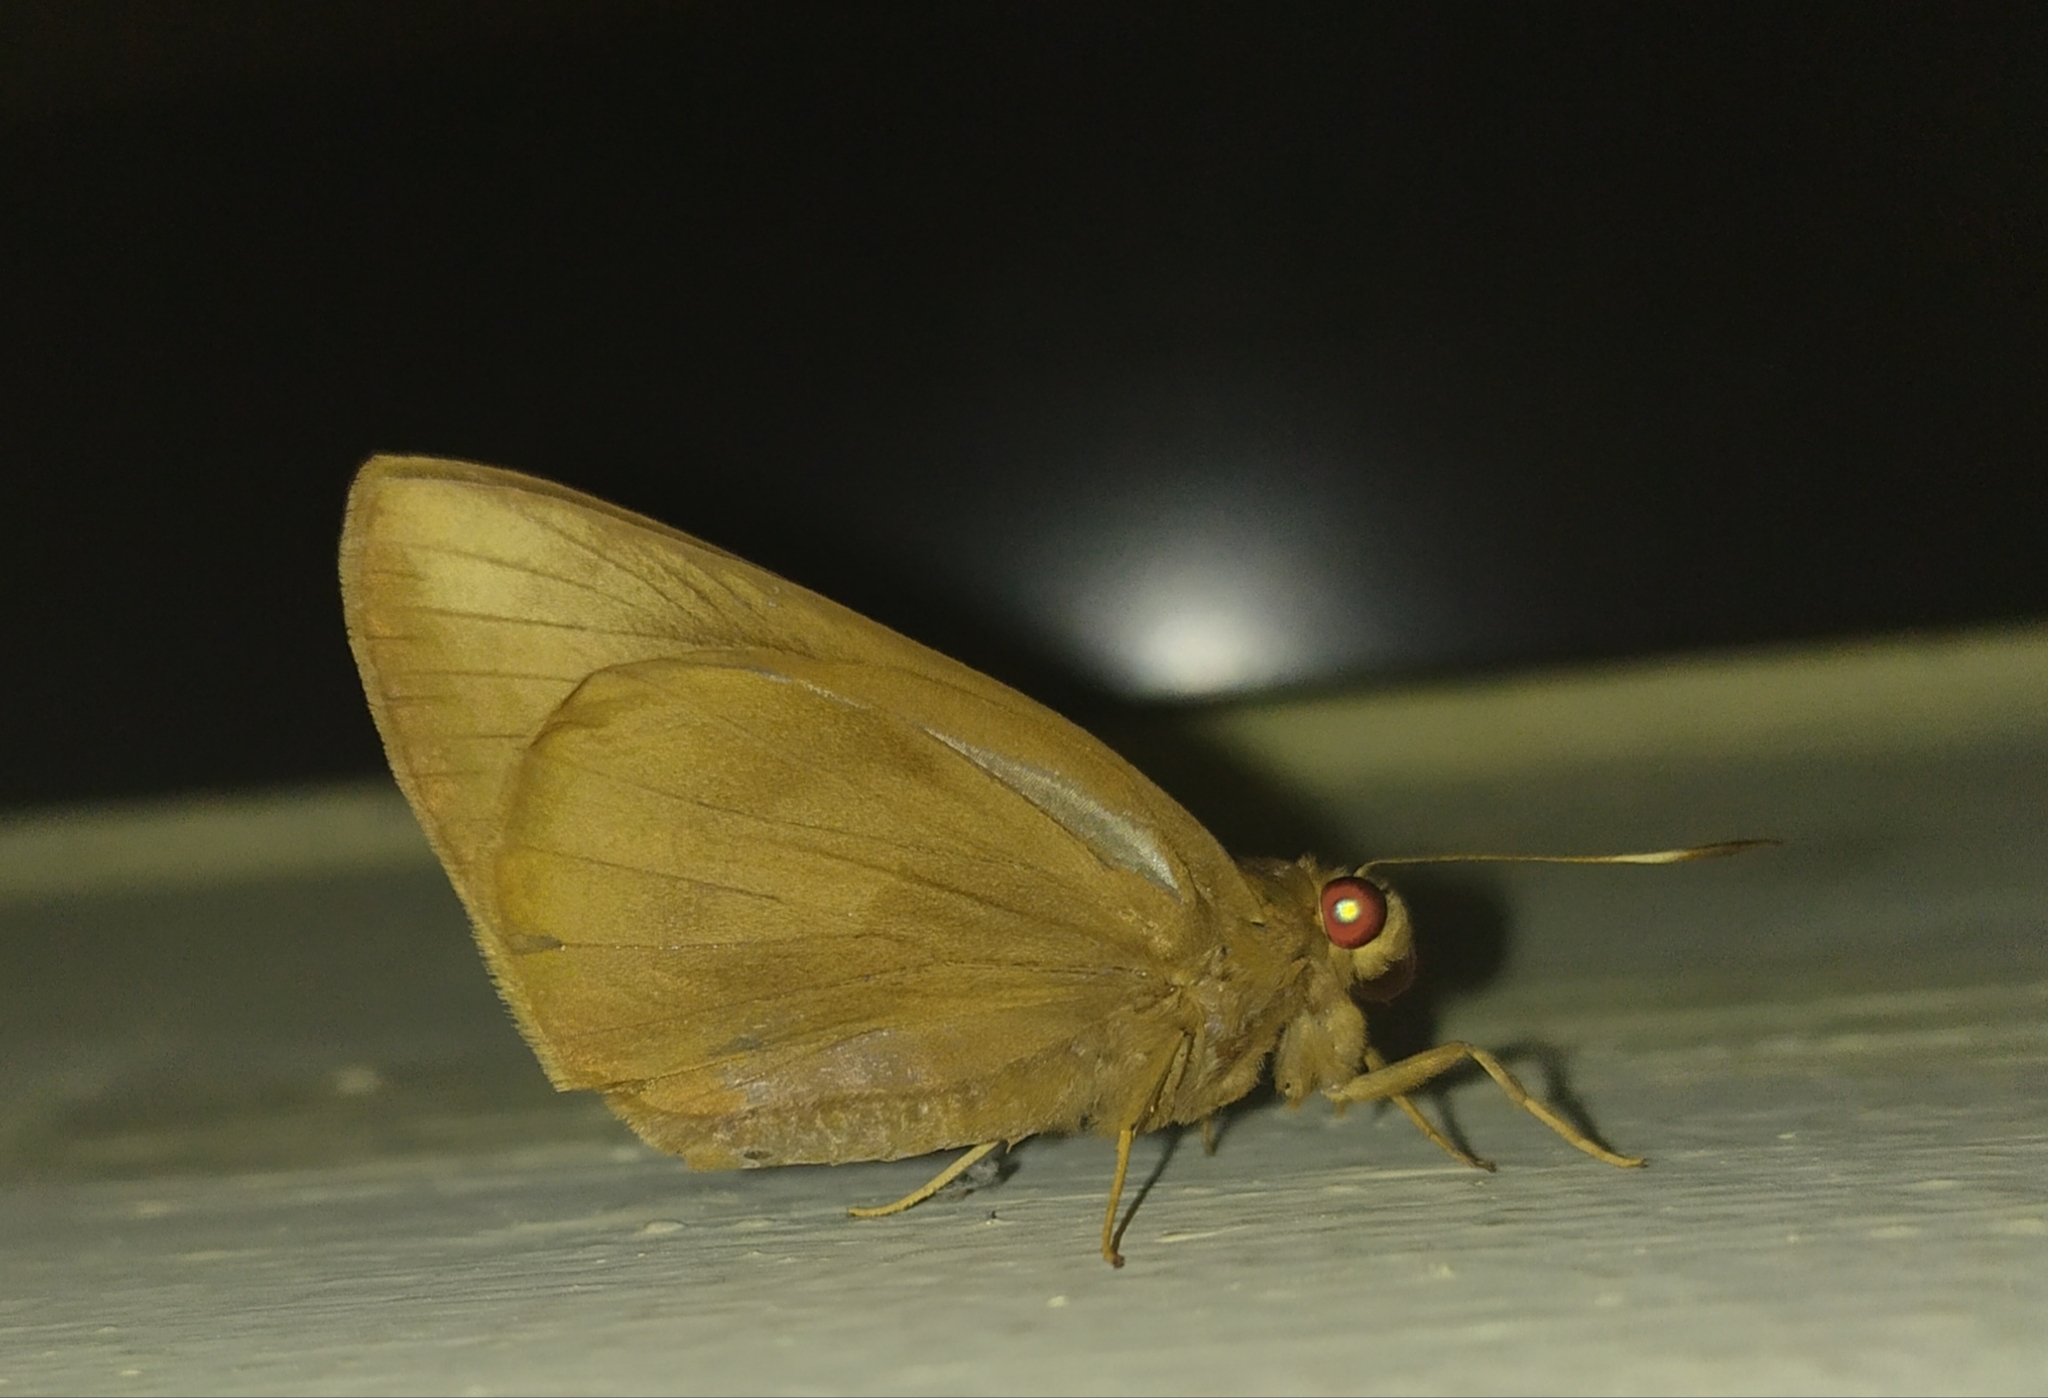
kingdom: Animalia
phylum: Arthropoda
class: Insecta
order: Lepidoptera
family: Hesperiidae
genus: Erionota
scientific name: Erionota torus
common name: Rounded palm-redeye
